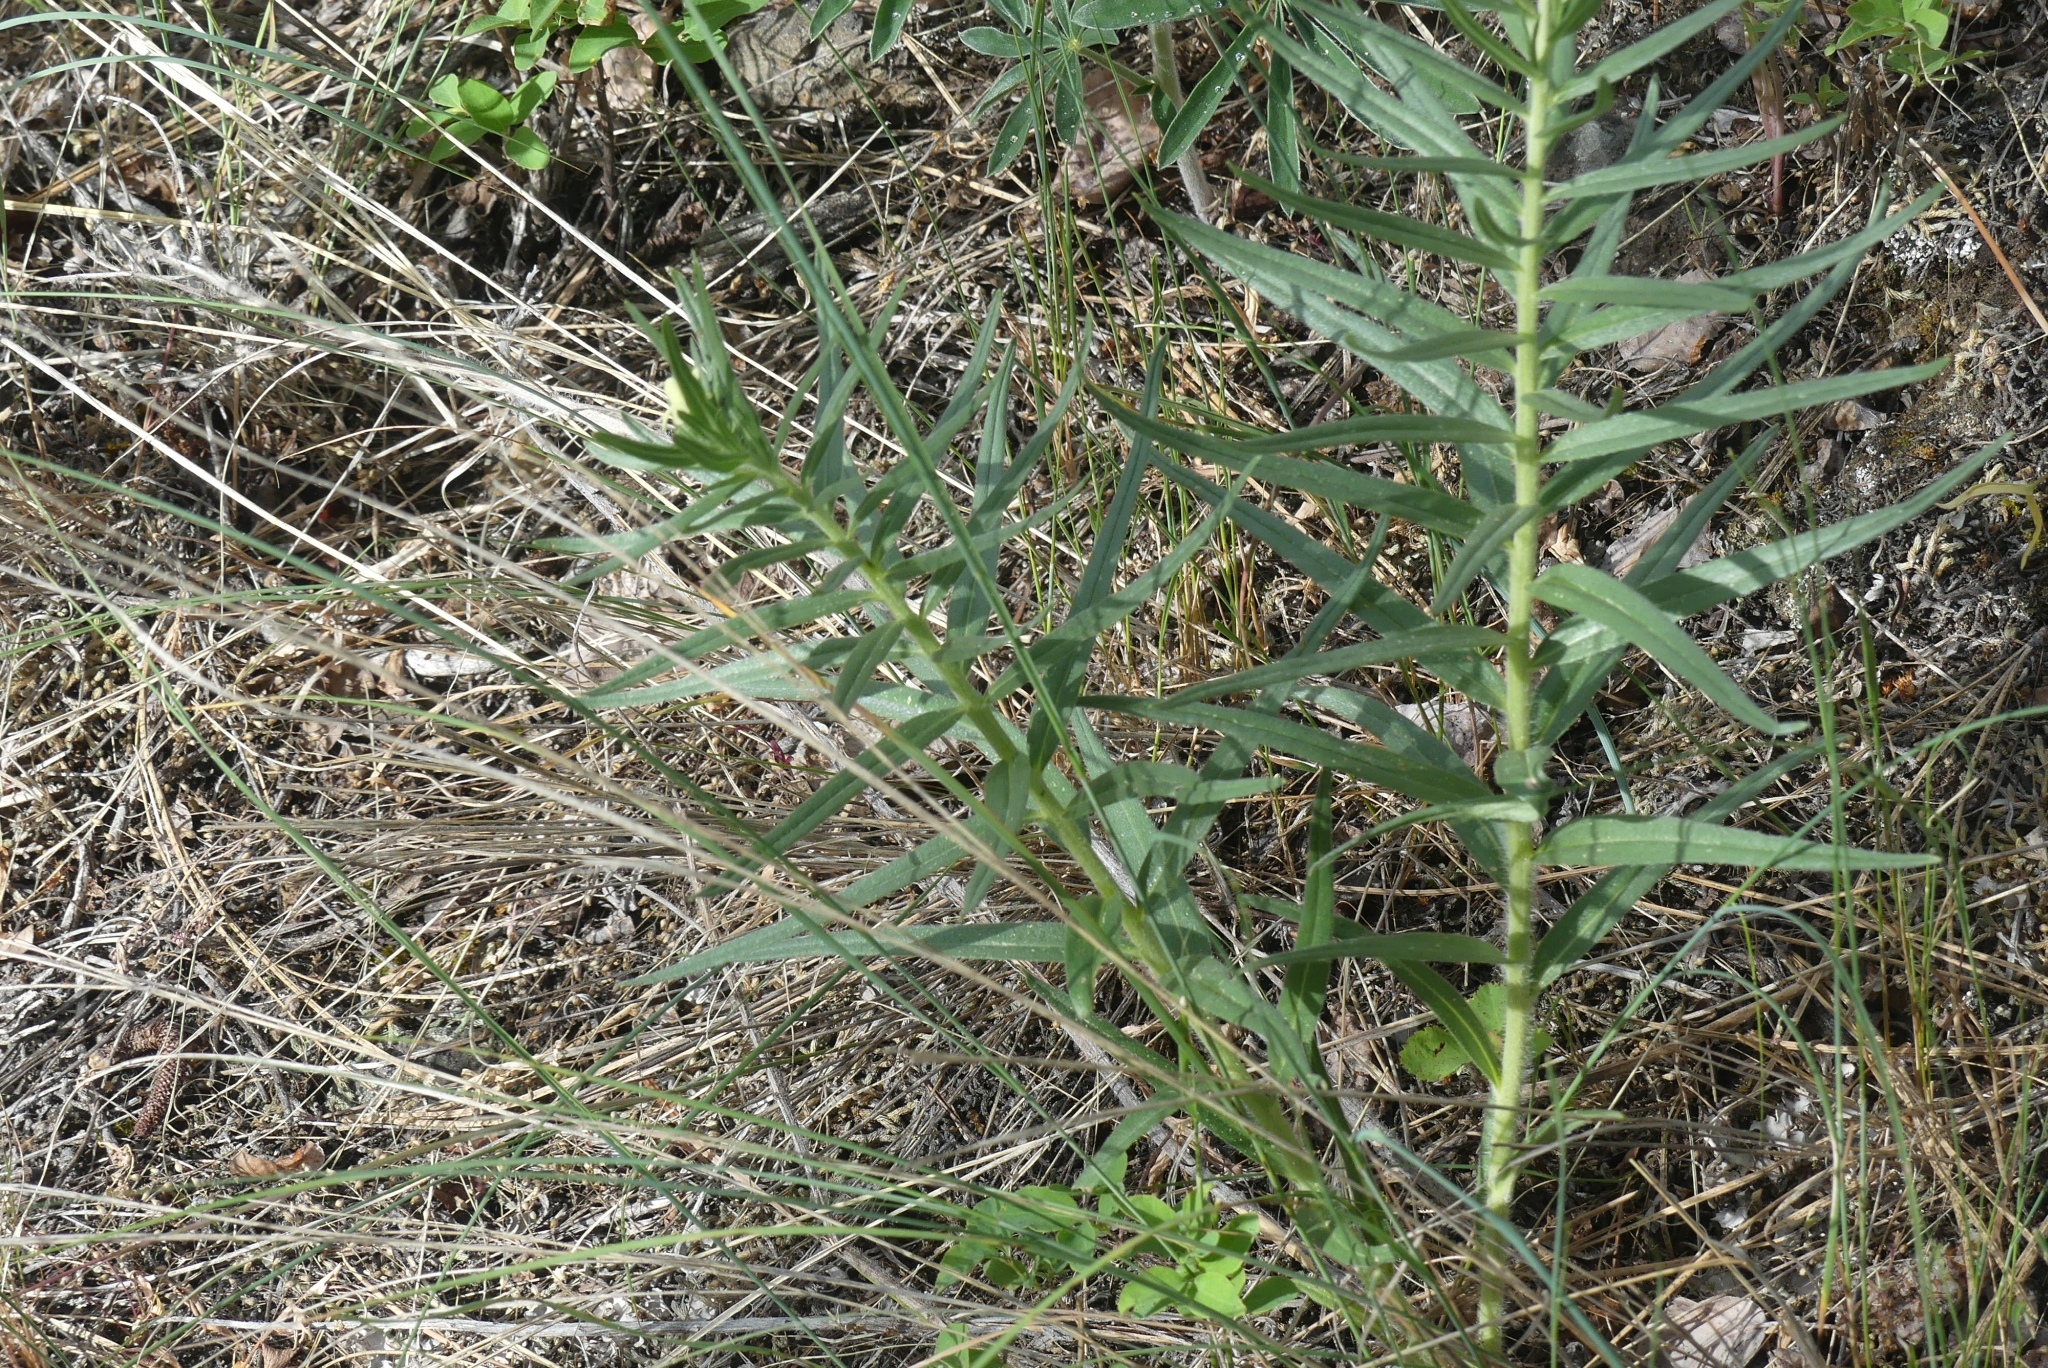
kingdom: Plantae
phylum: Tracheophyta
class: Magnoliopsida
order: Boraginales
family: Boraginaceae
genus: Lithospermum
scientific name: Lithospermum ruderale
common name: Western gromwell
